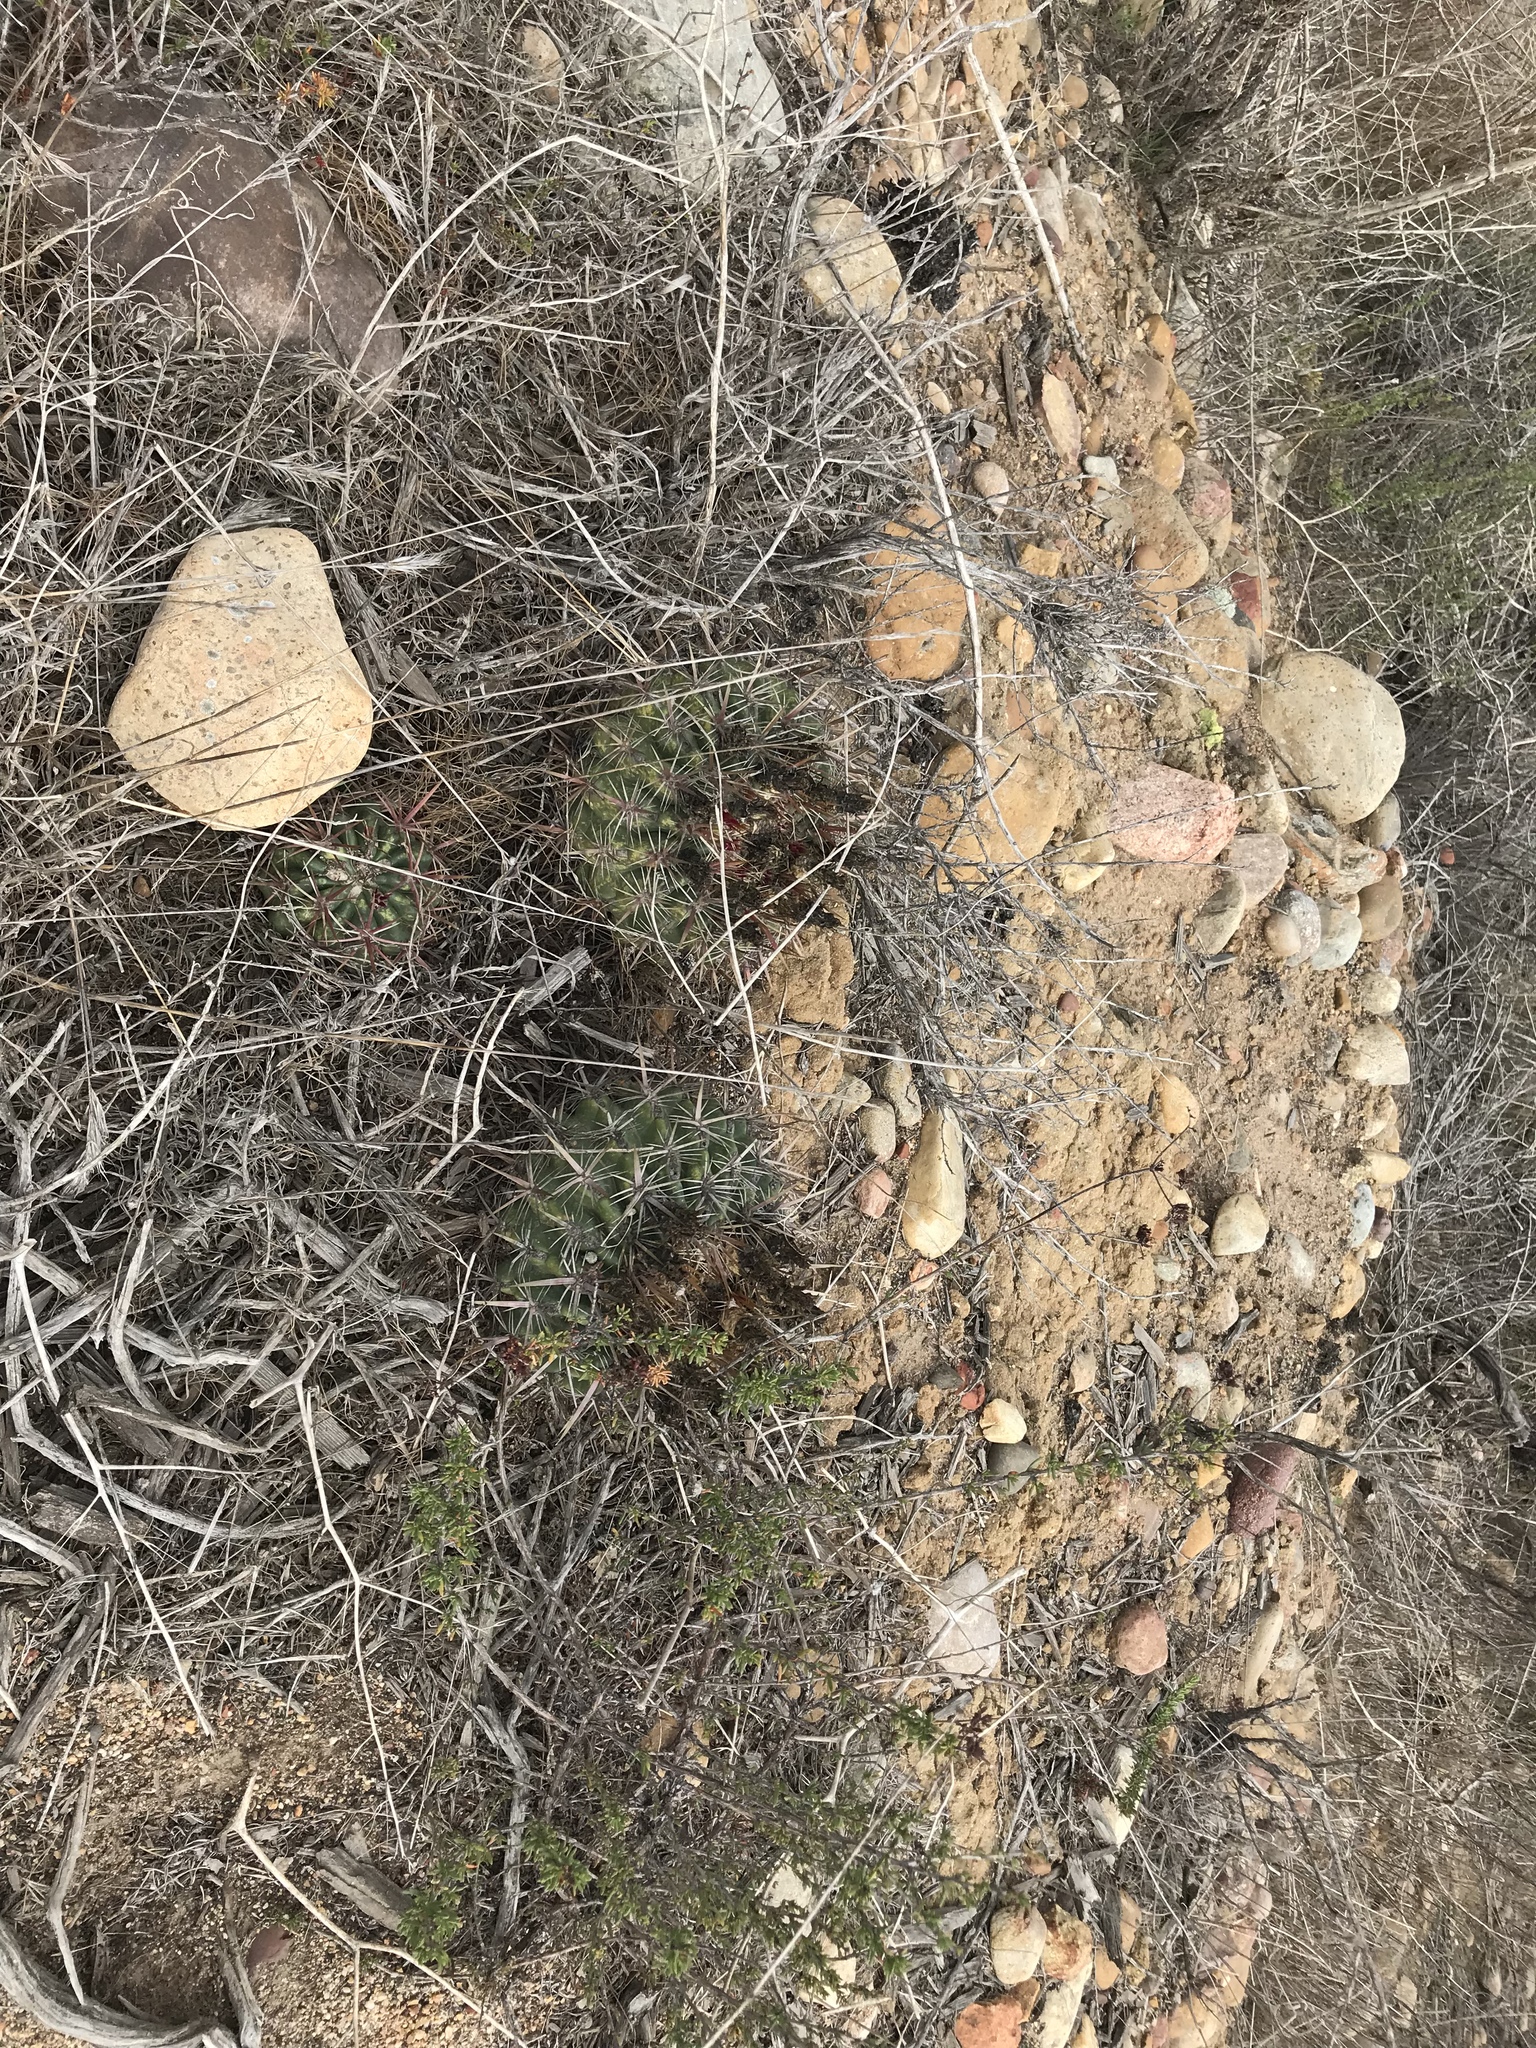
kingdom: Plantae
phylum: Tracheophyta
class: Magnoliopsida
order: Caryophyllales
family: Cactaceae
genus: Ferocactus
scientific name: Ferocactus viridescens
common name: San diego barrel cactus
